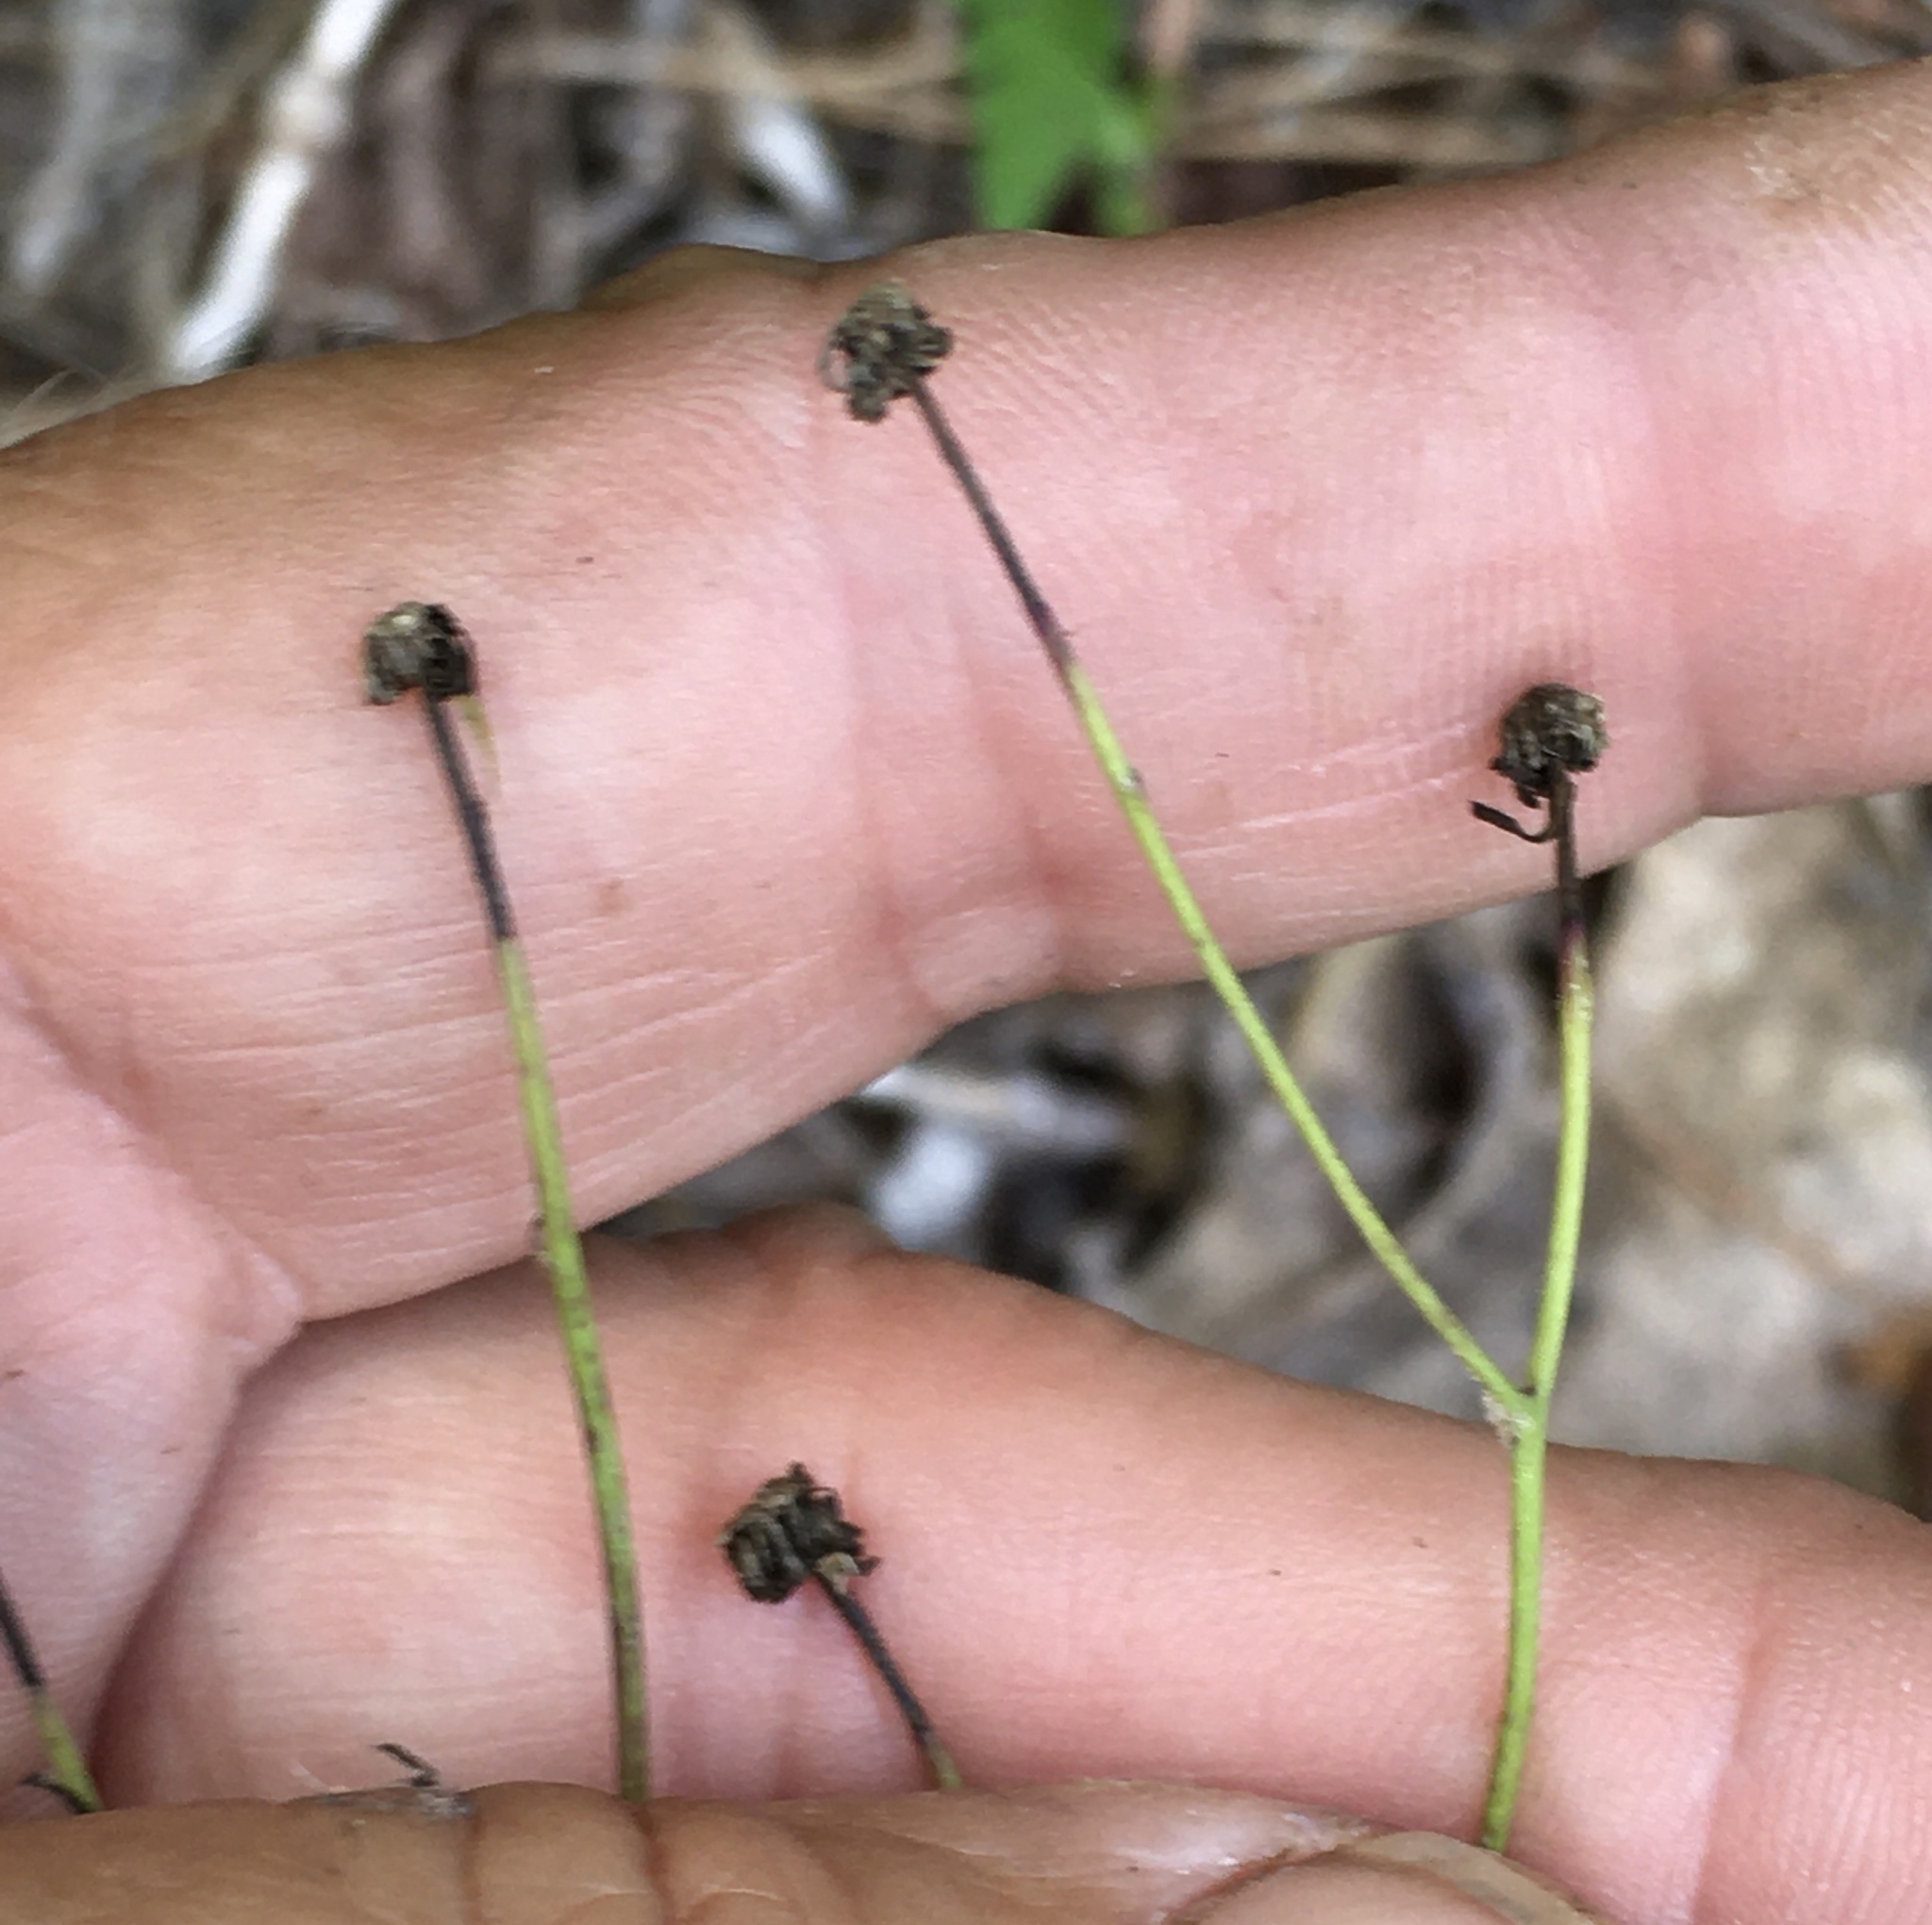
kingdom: Plantae
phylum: Tracheophyta
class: Magnoliopsida
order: Asterales
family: Asteraceae
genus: Hieracium
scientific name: Hieracium venosum
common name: Rattlesnake hawkweed
